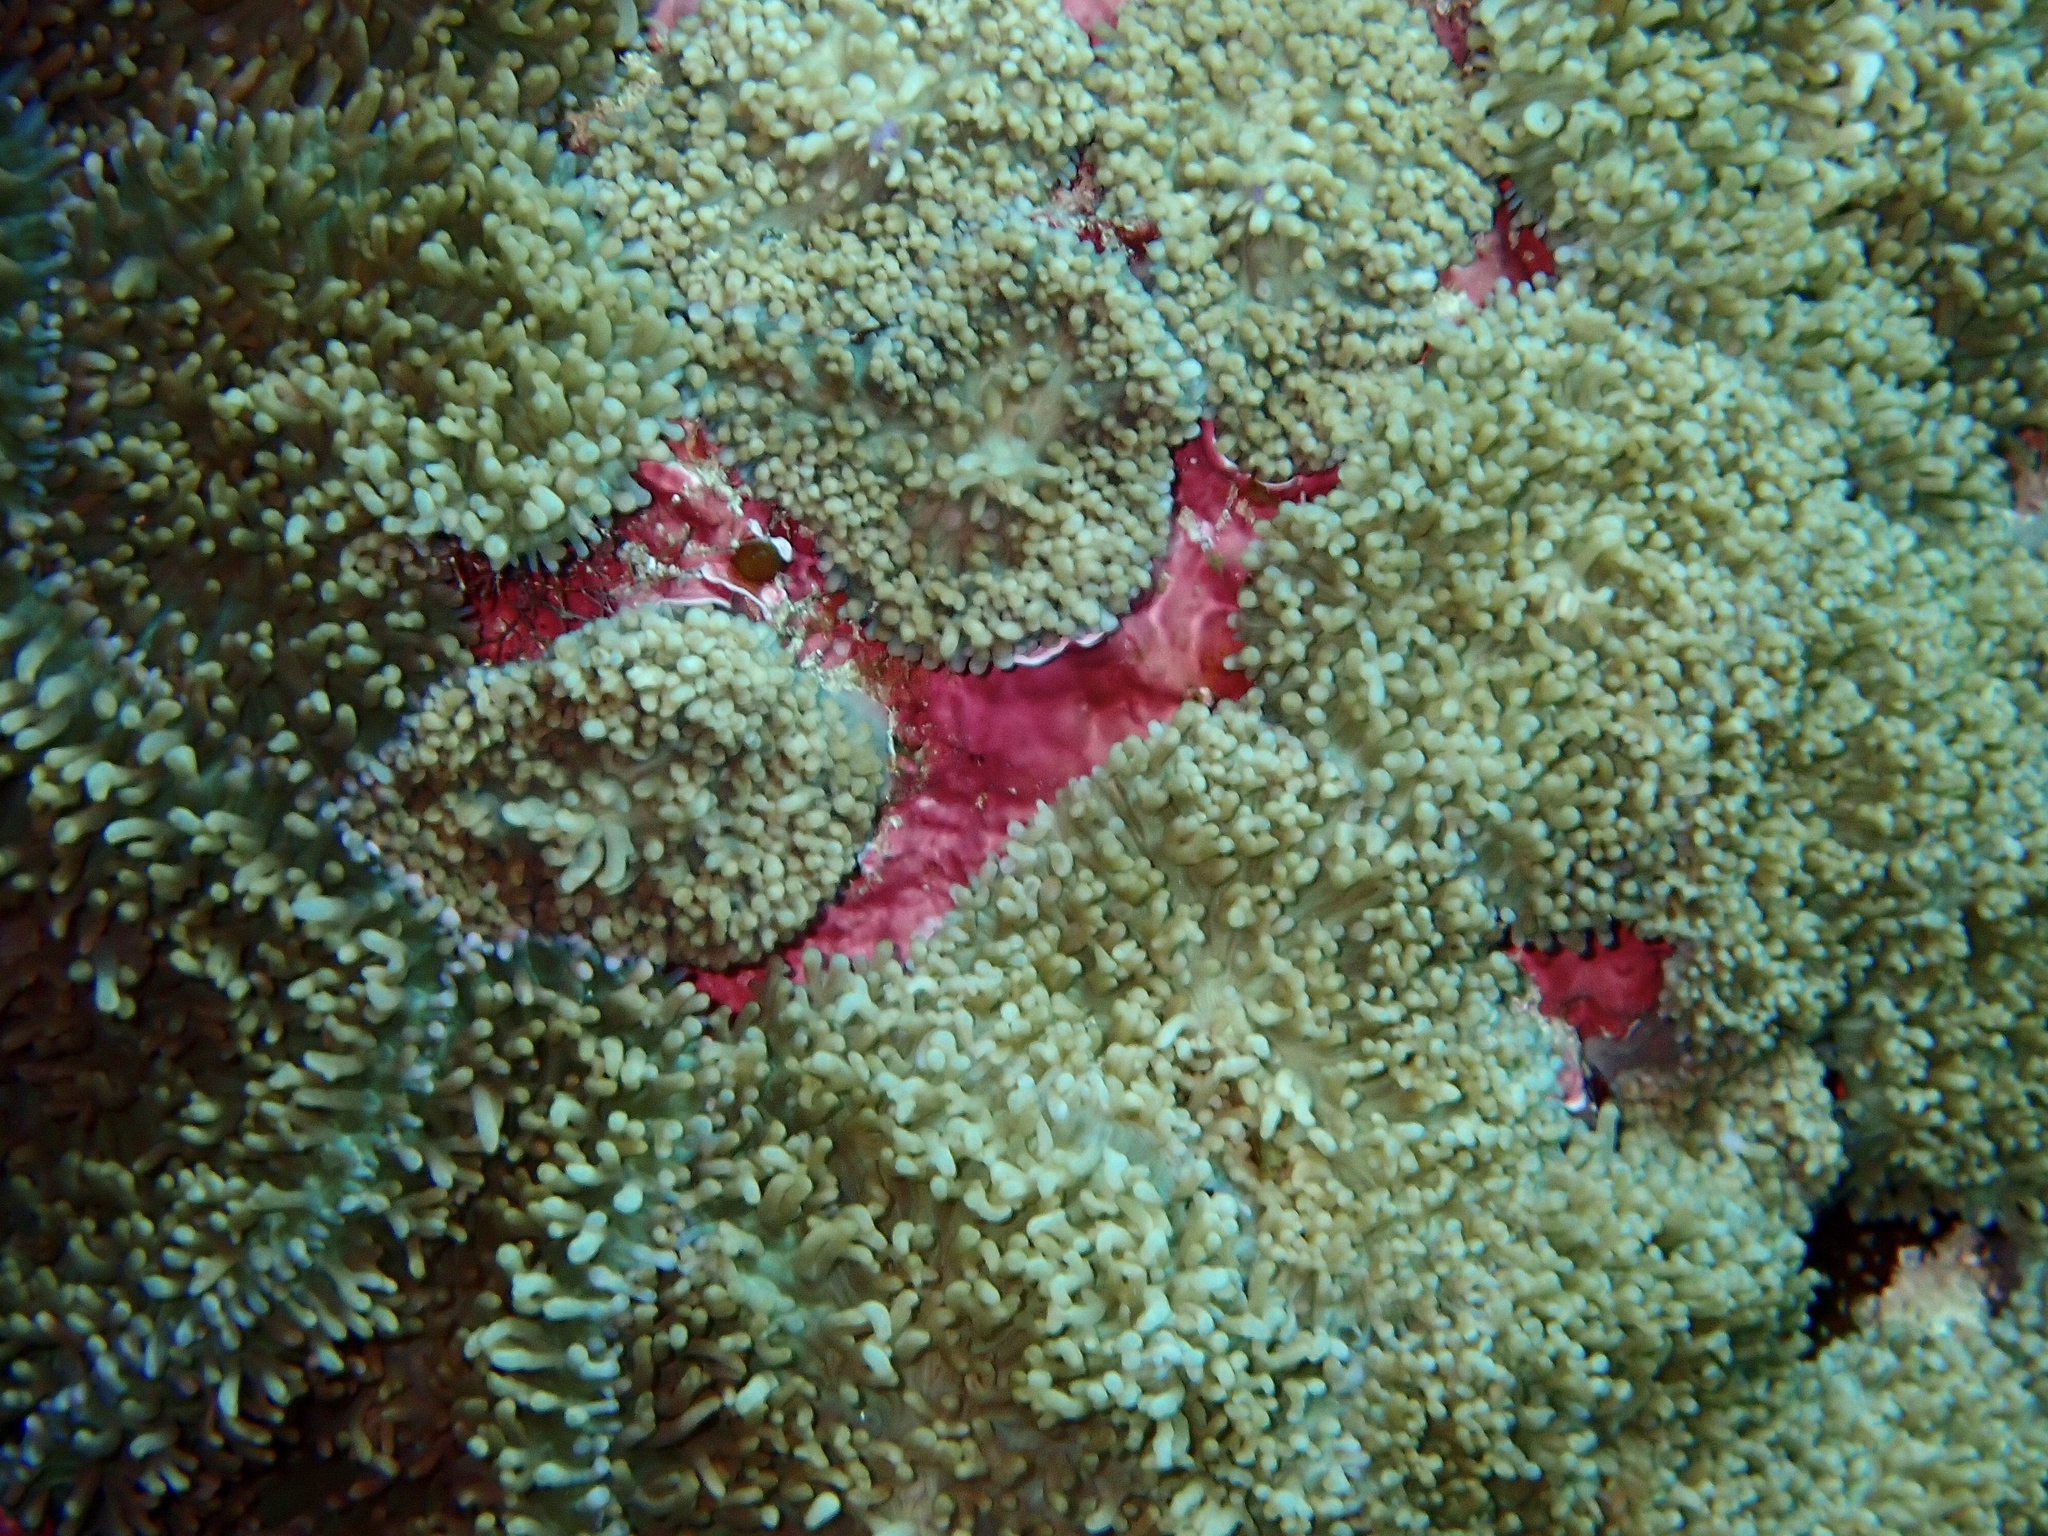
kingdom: Animalia
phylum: Cnidaria
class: Anthozoa
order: Corallimorpharia
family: Discosomidae
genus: Rhodactis
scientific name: Rhodactis rhodostoma
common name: Red-mouth mushroom anemone
